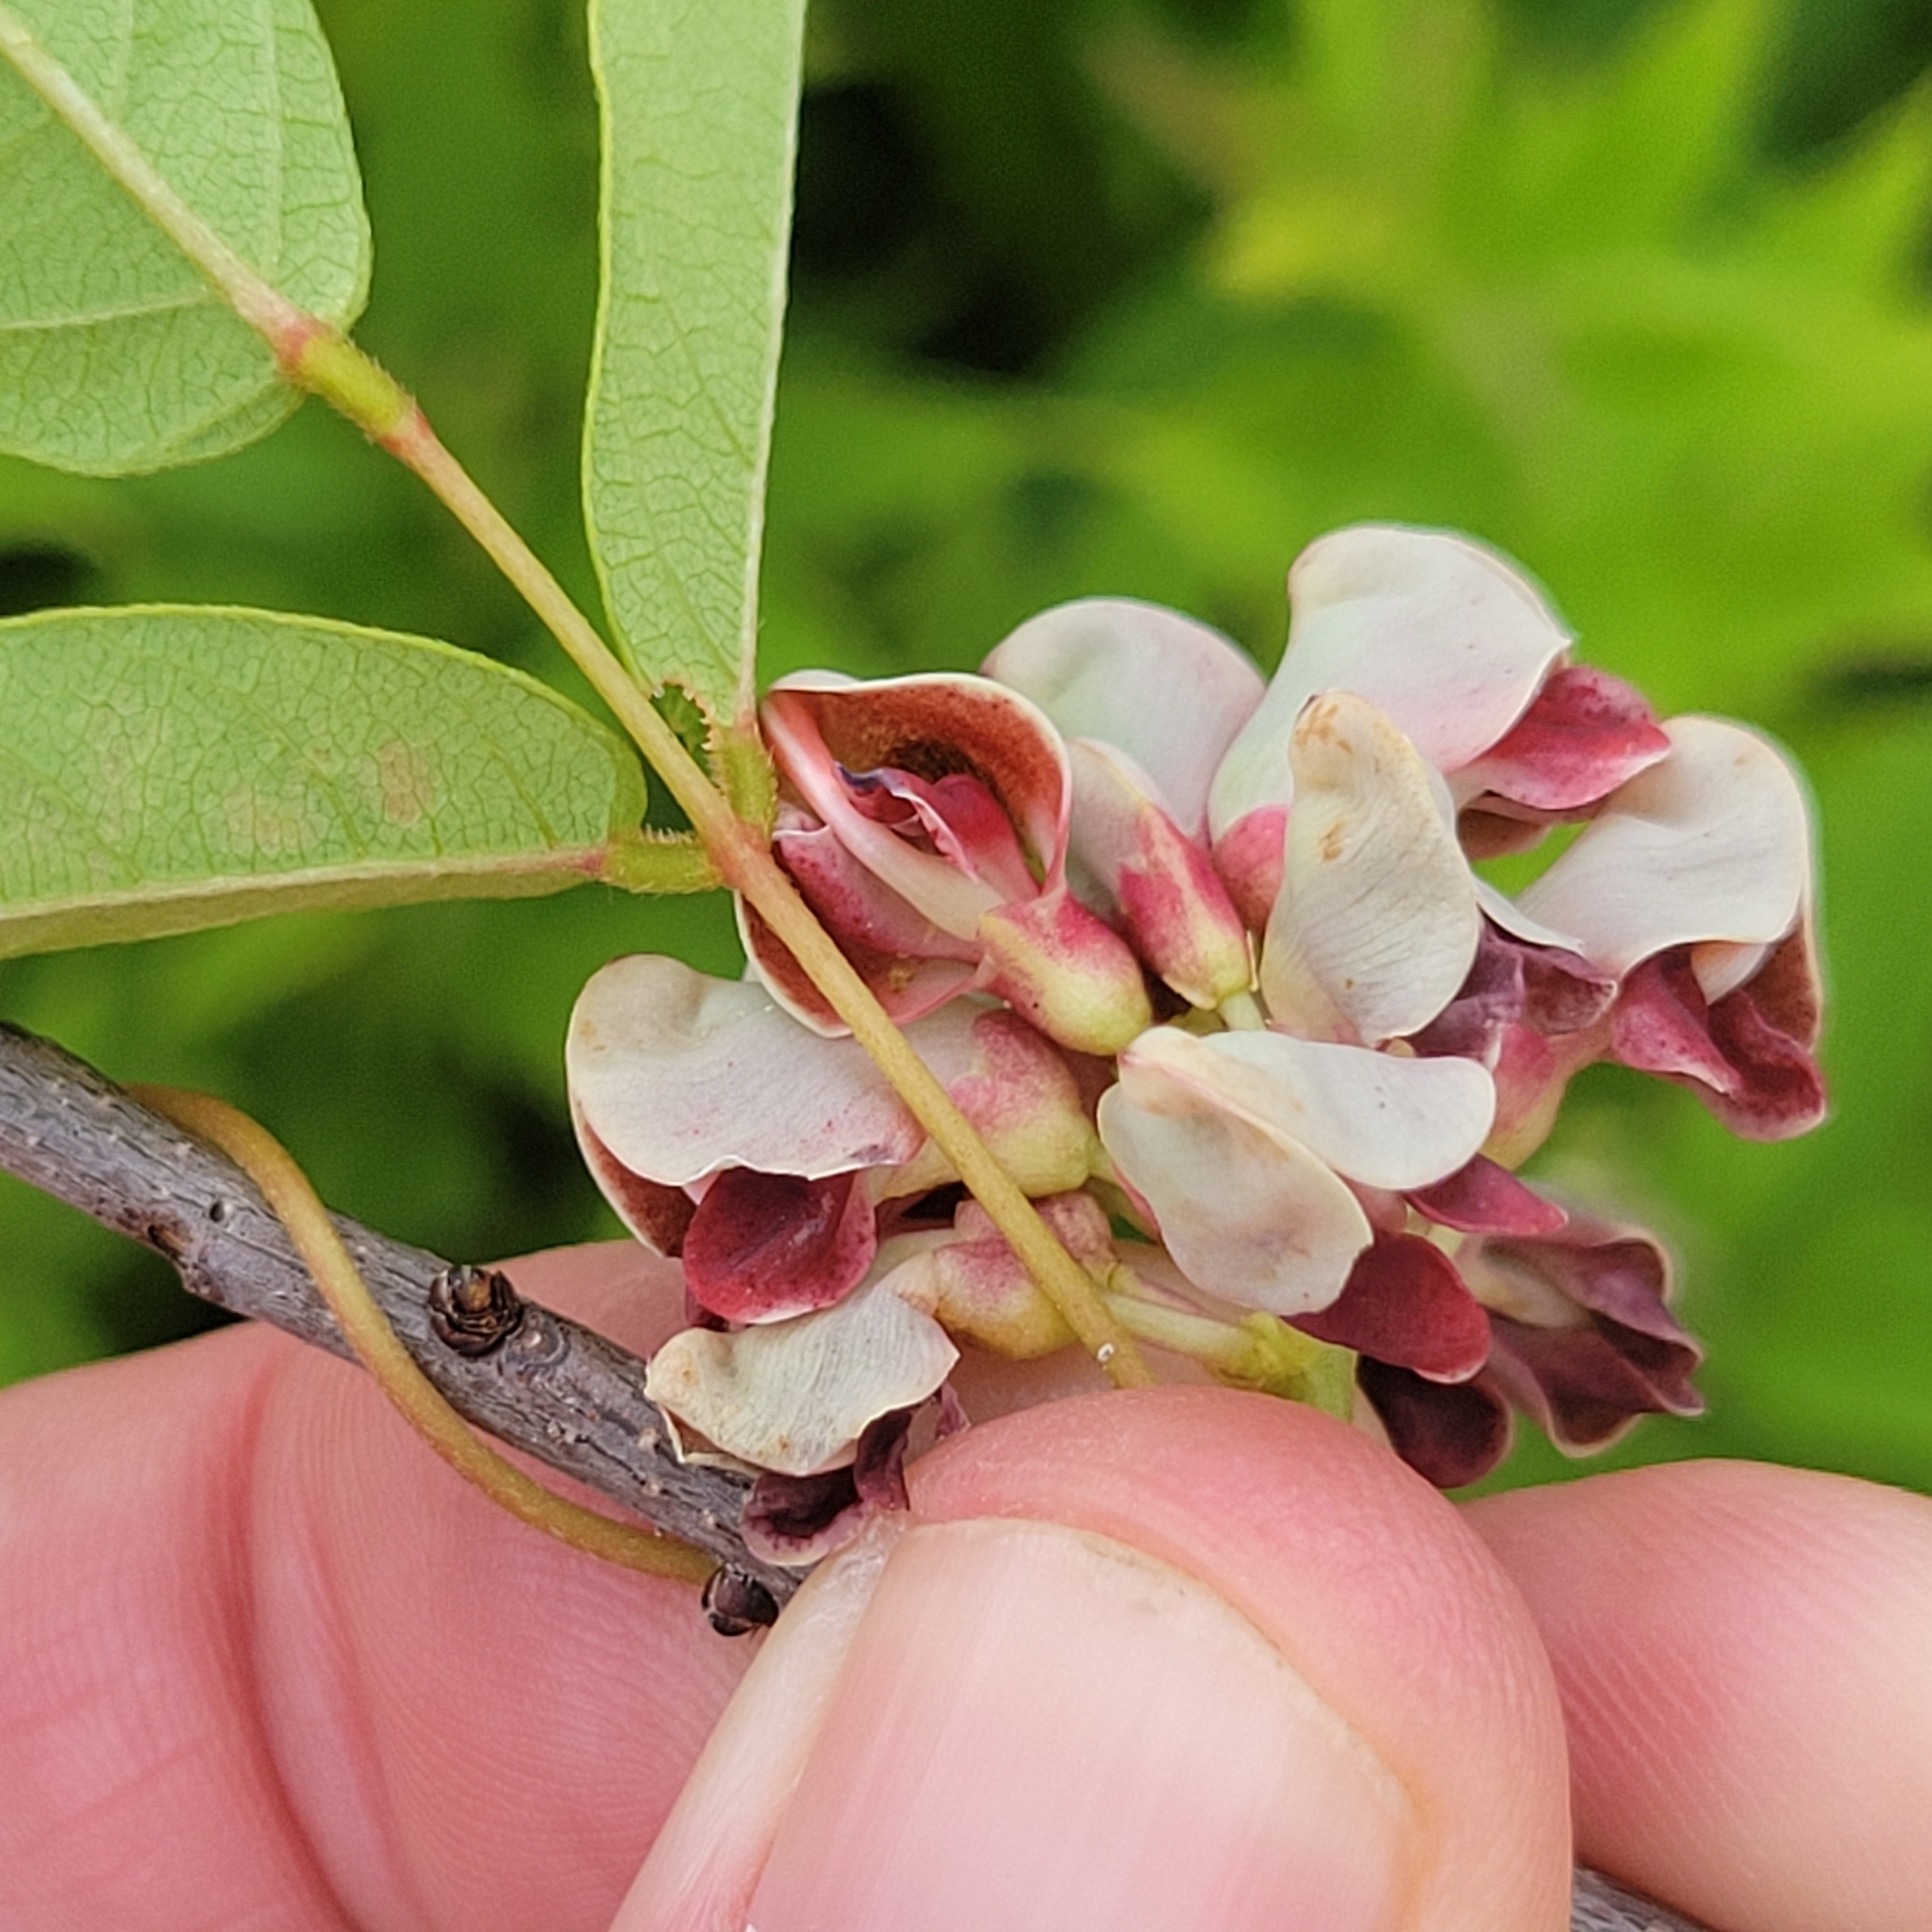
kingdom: Plantae
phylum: Tracheophyta
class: Magnoliopsida
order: Fabales
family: Fabaceae
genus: Apios
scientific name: Apios americana
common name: American potato-bean
